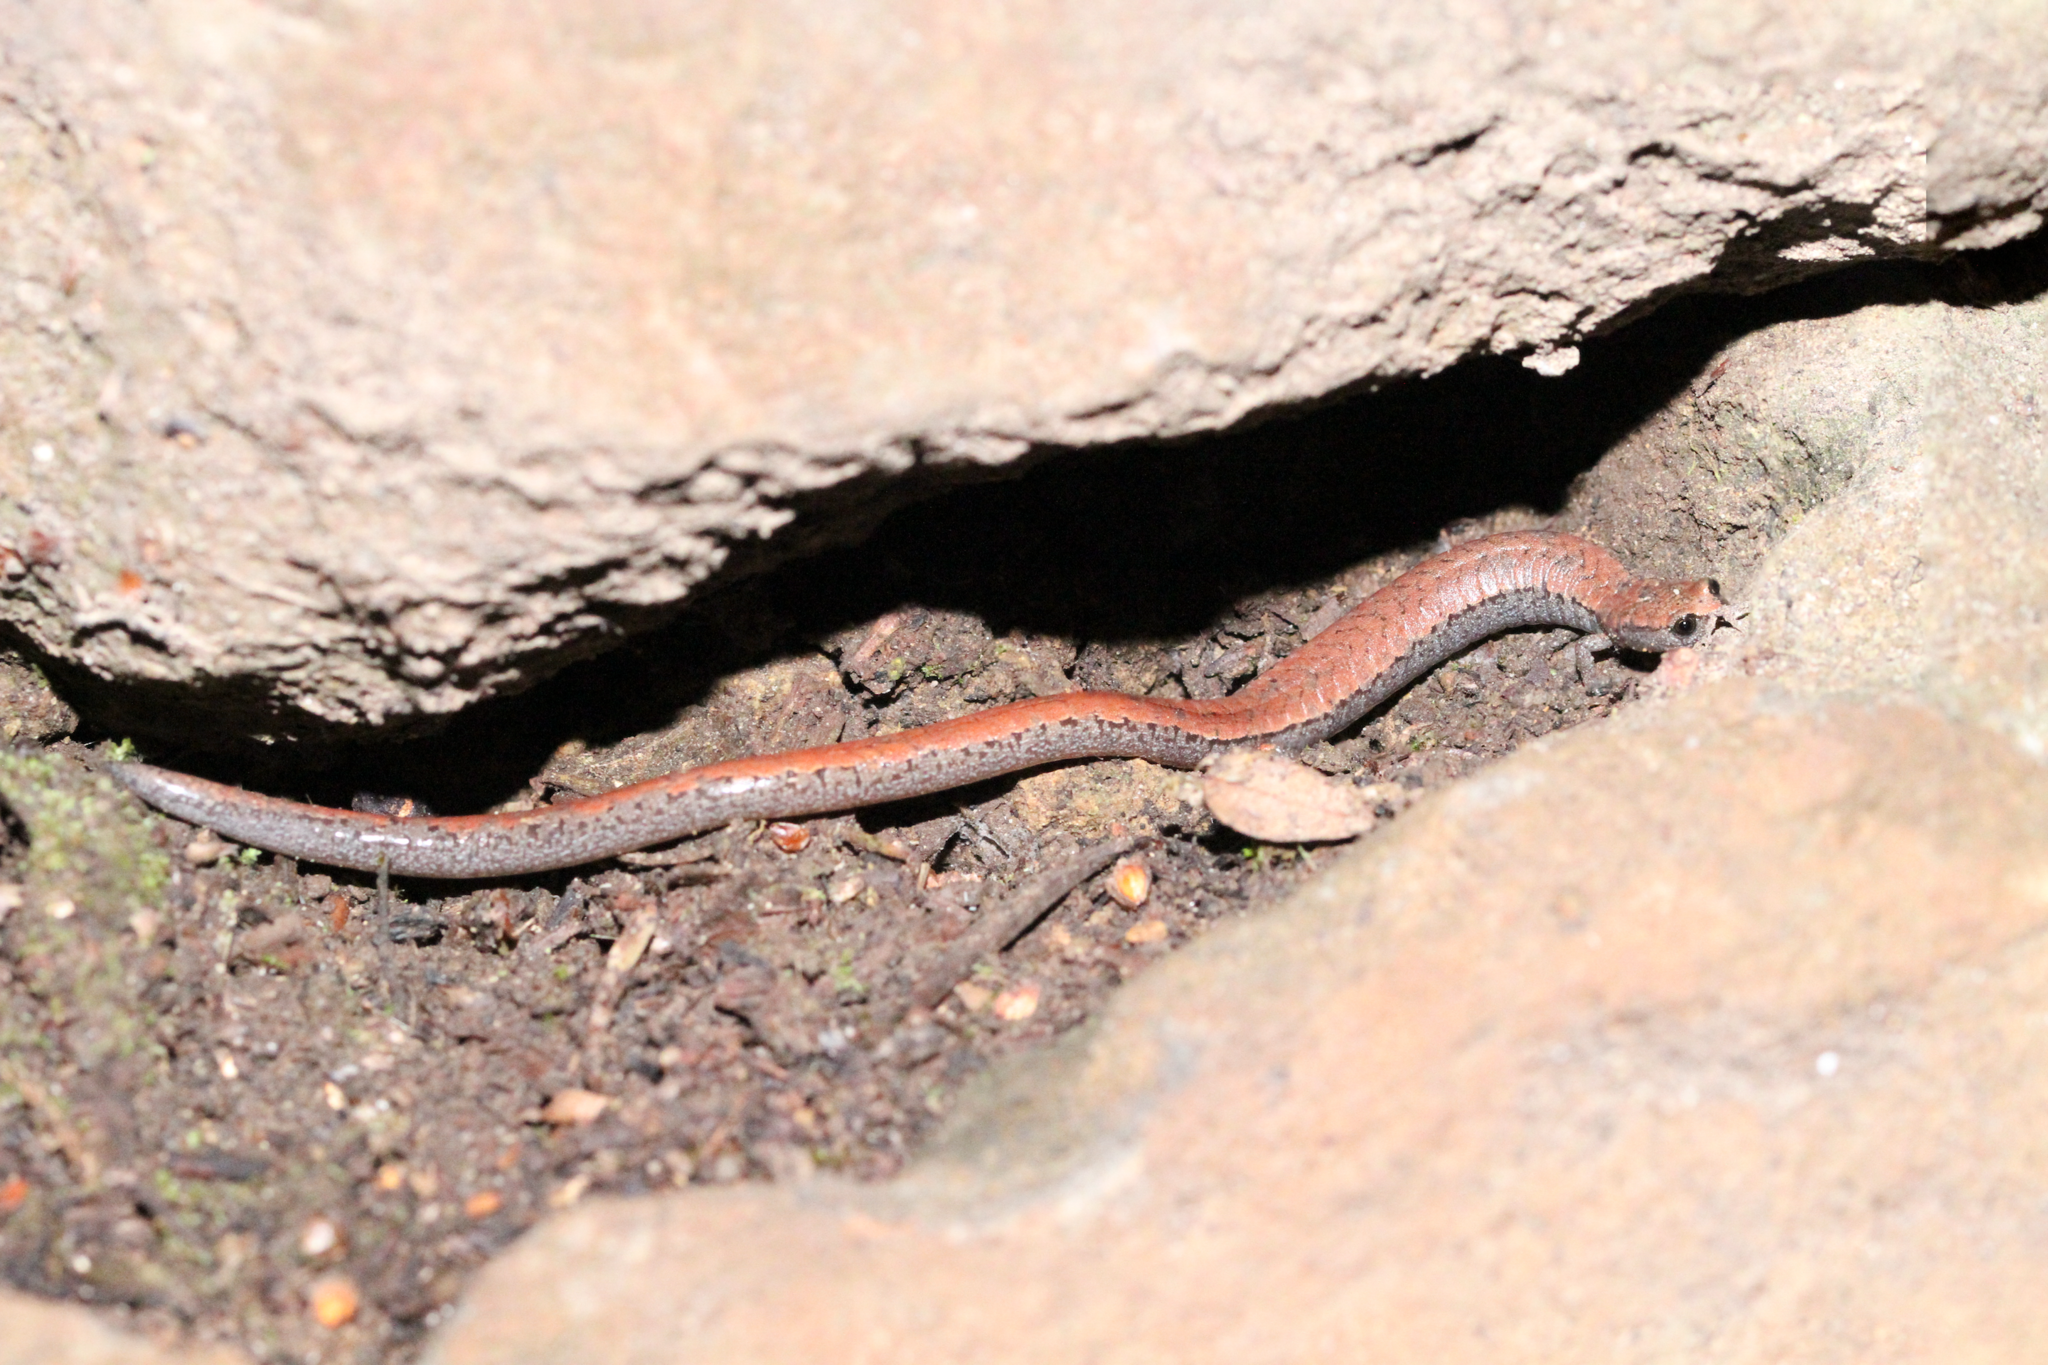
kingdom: Animalia
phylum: Chordata
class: Amphibia
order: Caudata
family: Plethodontidae
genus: Batrachoseps
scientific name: Batrachoseps attenuatus
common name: California slender salamander
